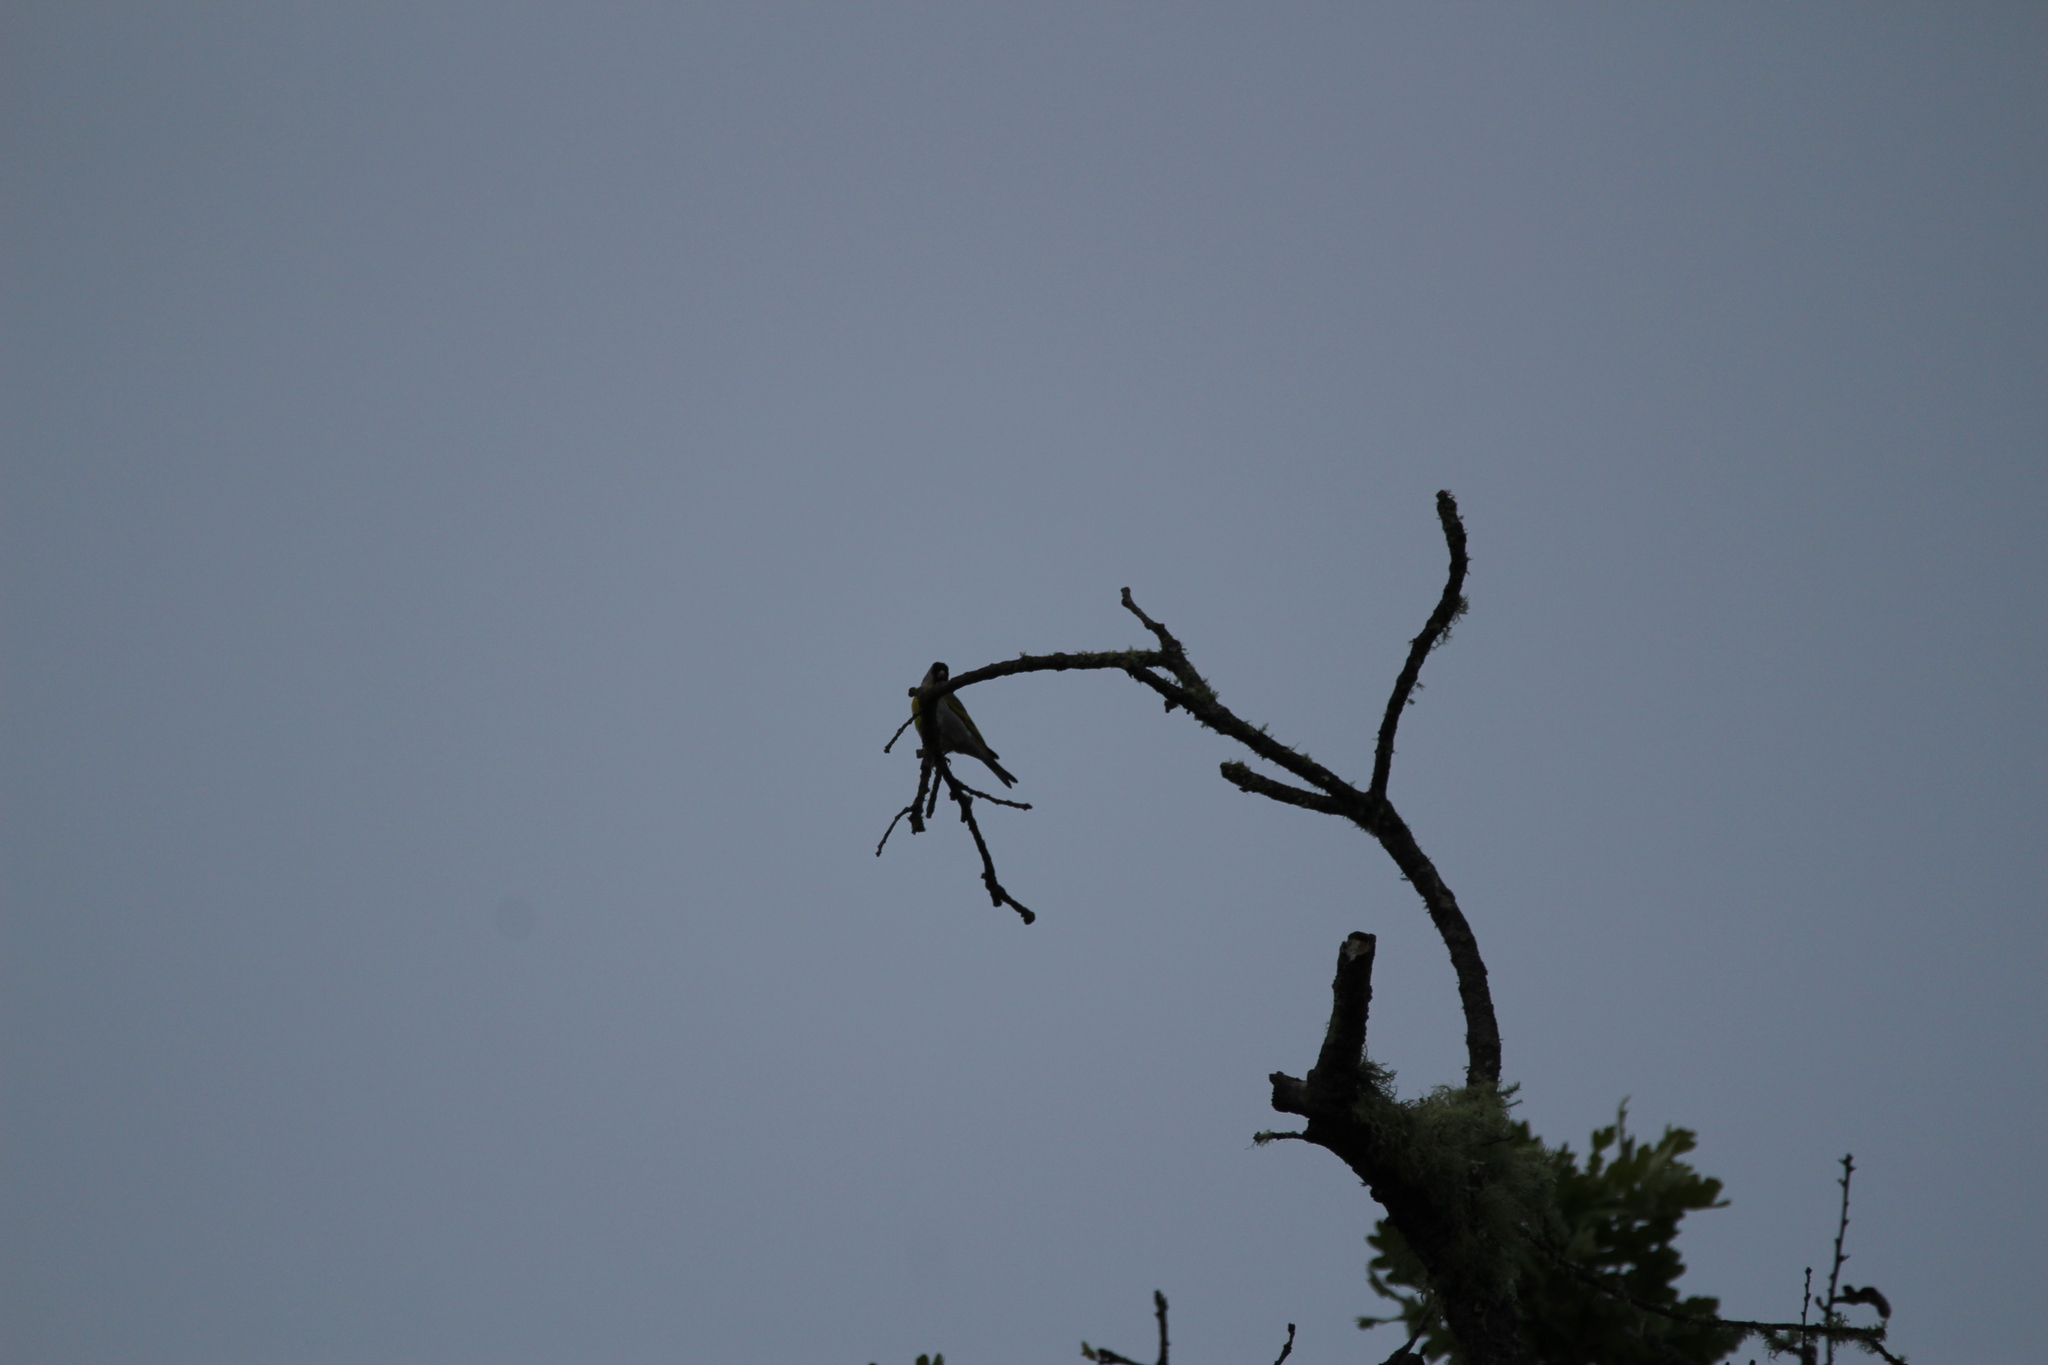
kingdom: Animalia
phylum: Chordata
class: Aves
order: Passeriformes
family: Fringillidae
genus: Spinus
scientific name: Spinus lawrencei
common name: Lawrence's goldfinch
